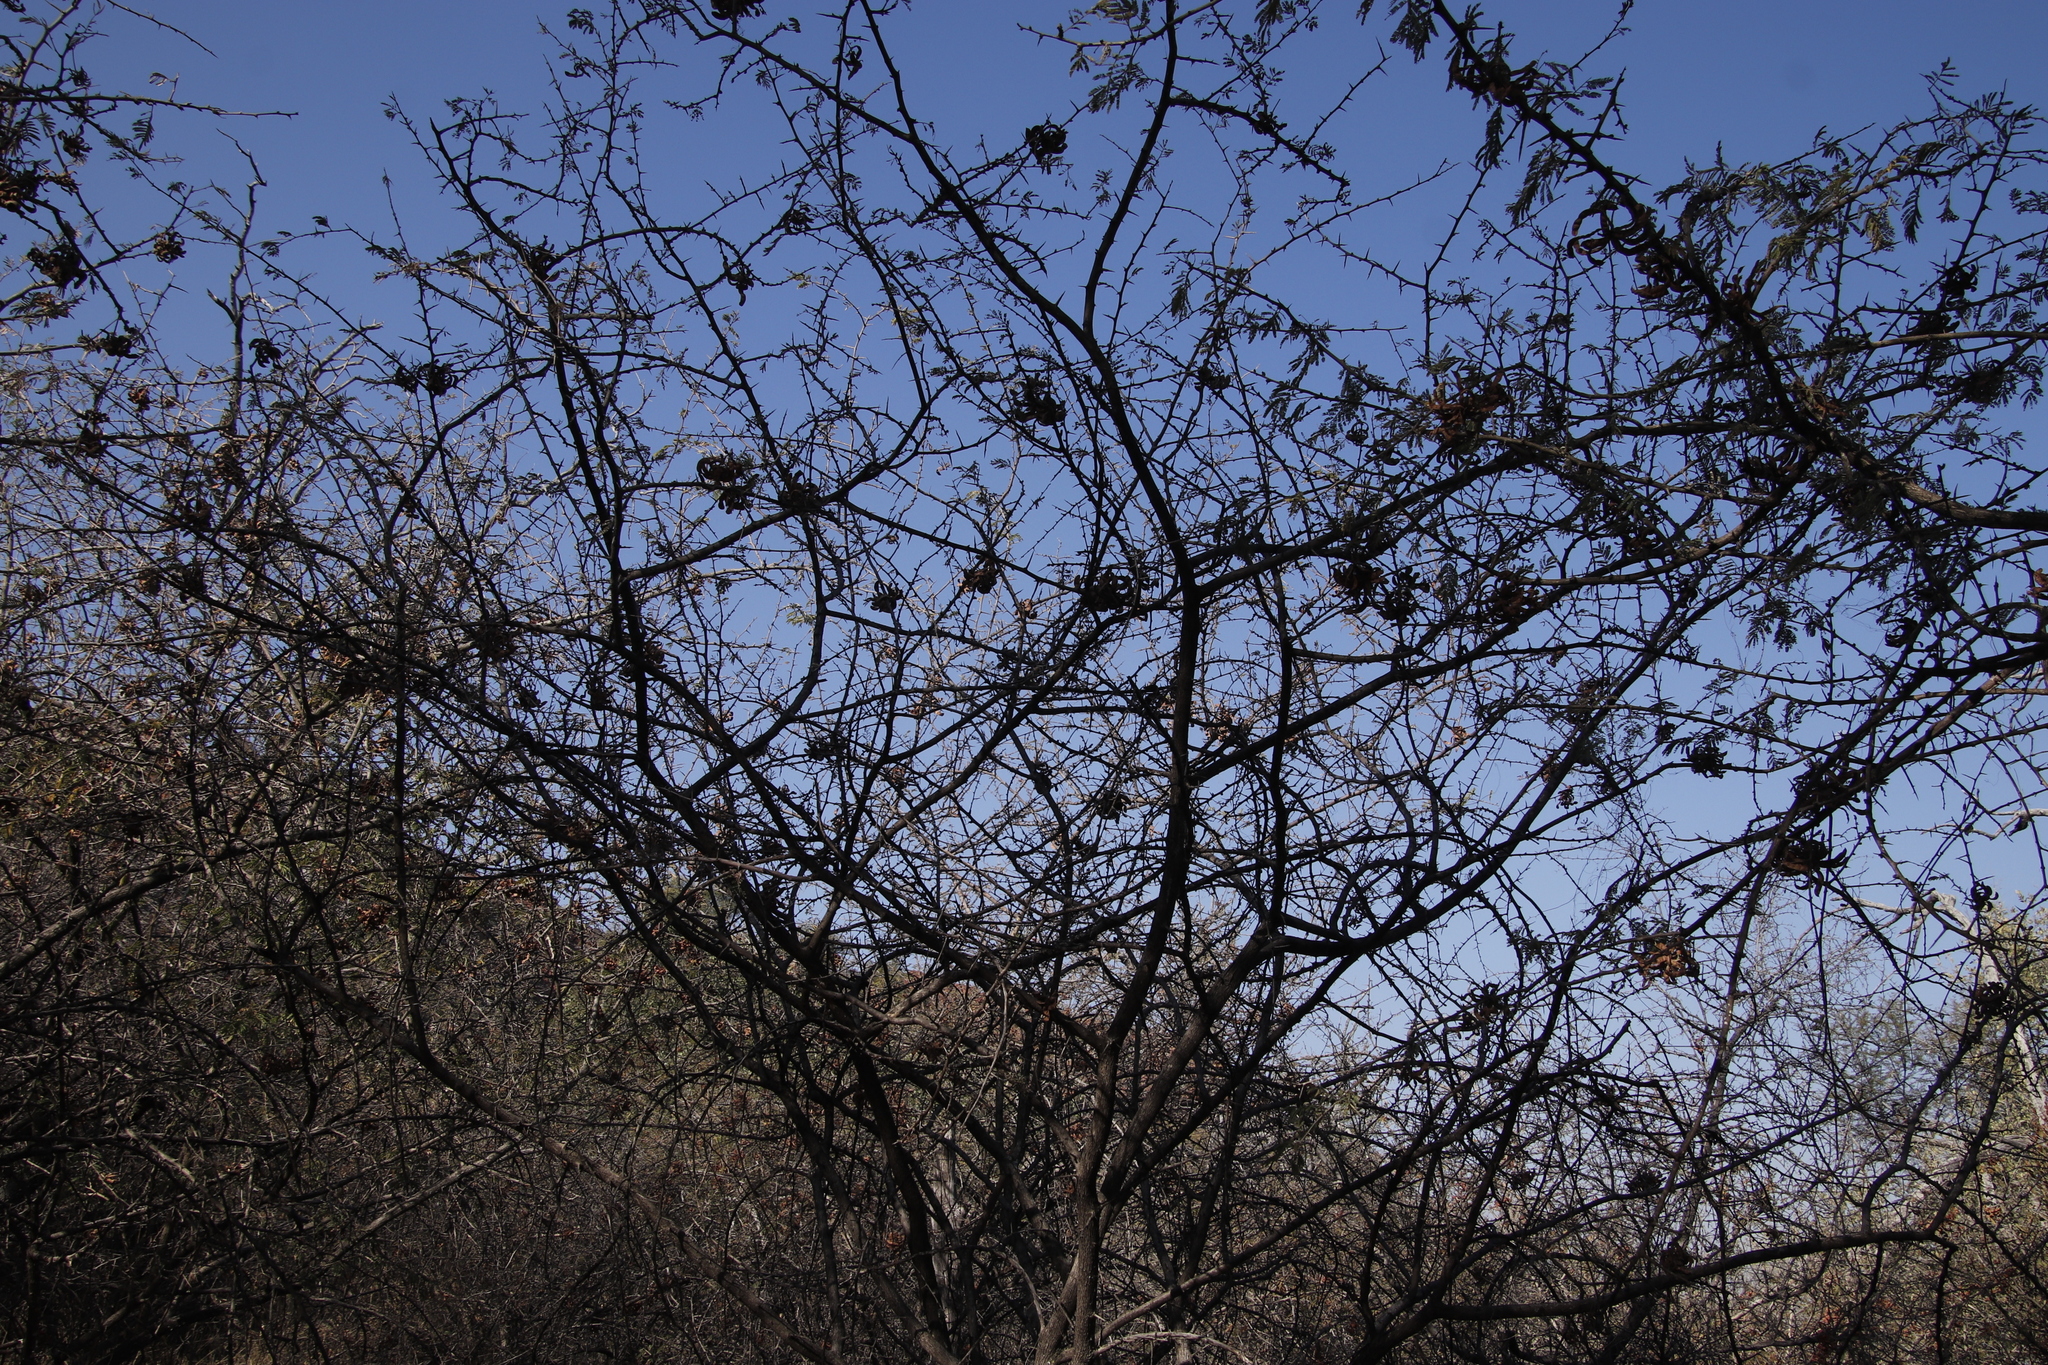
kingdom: Plantae
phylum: Tracheophyta
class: Magnoliopsida
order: Fabales
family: Fabaceae
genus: Dichrostachys
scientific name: Dichrostachys cinerea
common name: Sicklebush
